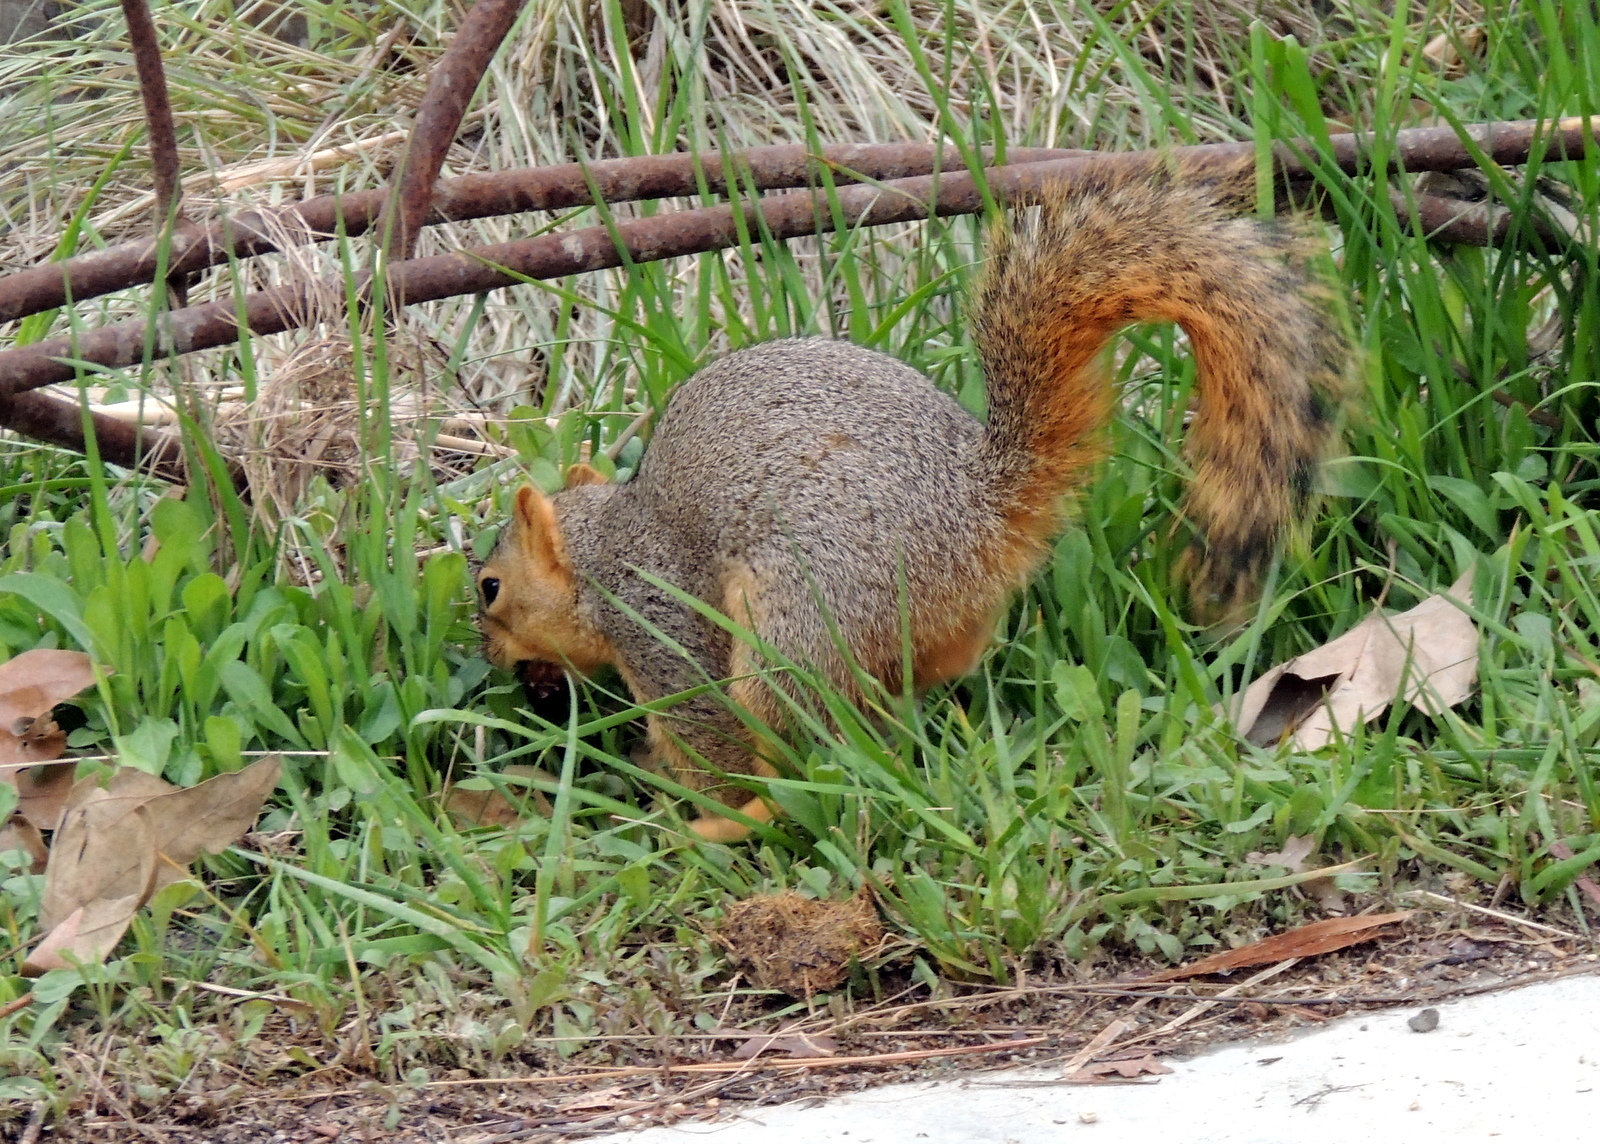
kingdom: Animalia
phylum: Chordata
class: Mammalia
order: Rodentia
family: Sciuridae
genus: Sciurus
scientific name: Sciurus niger
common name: Fox squirrel
